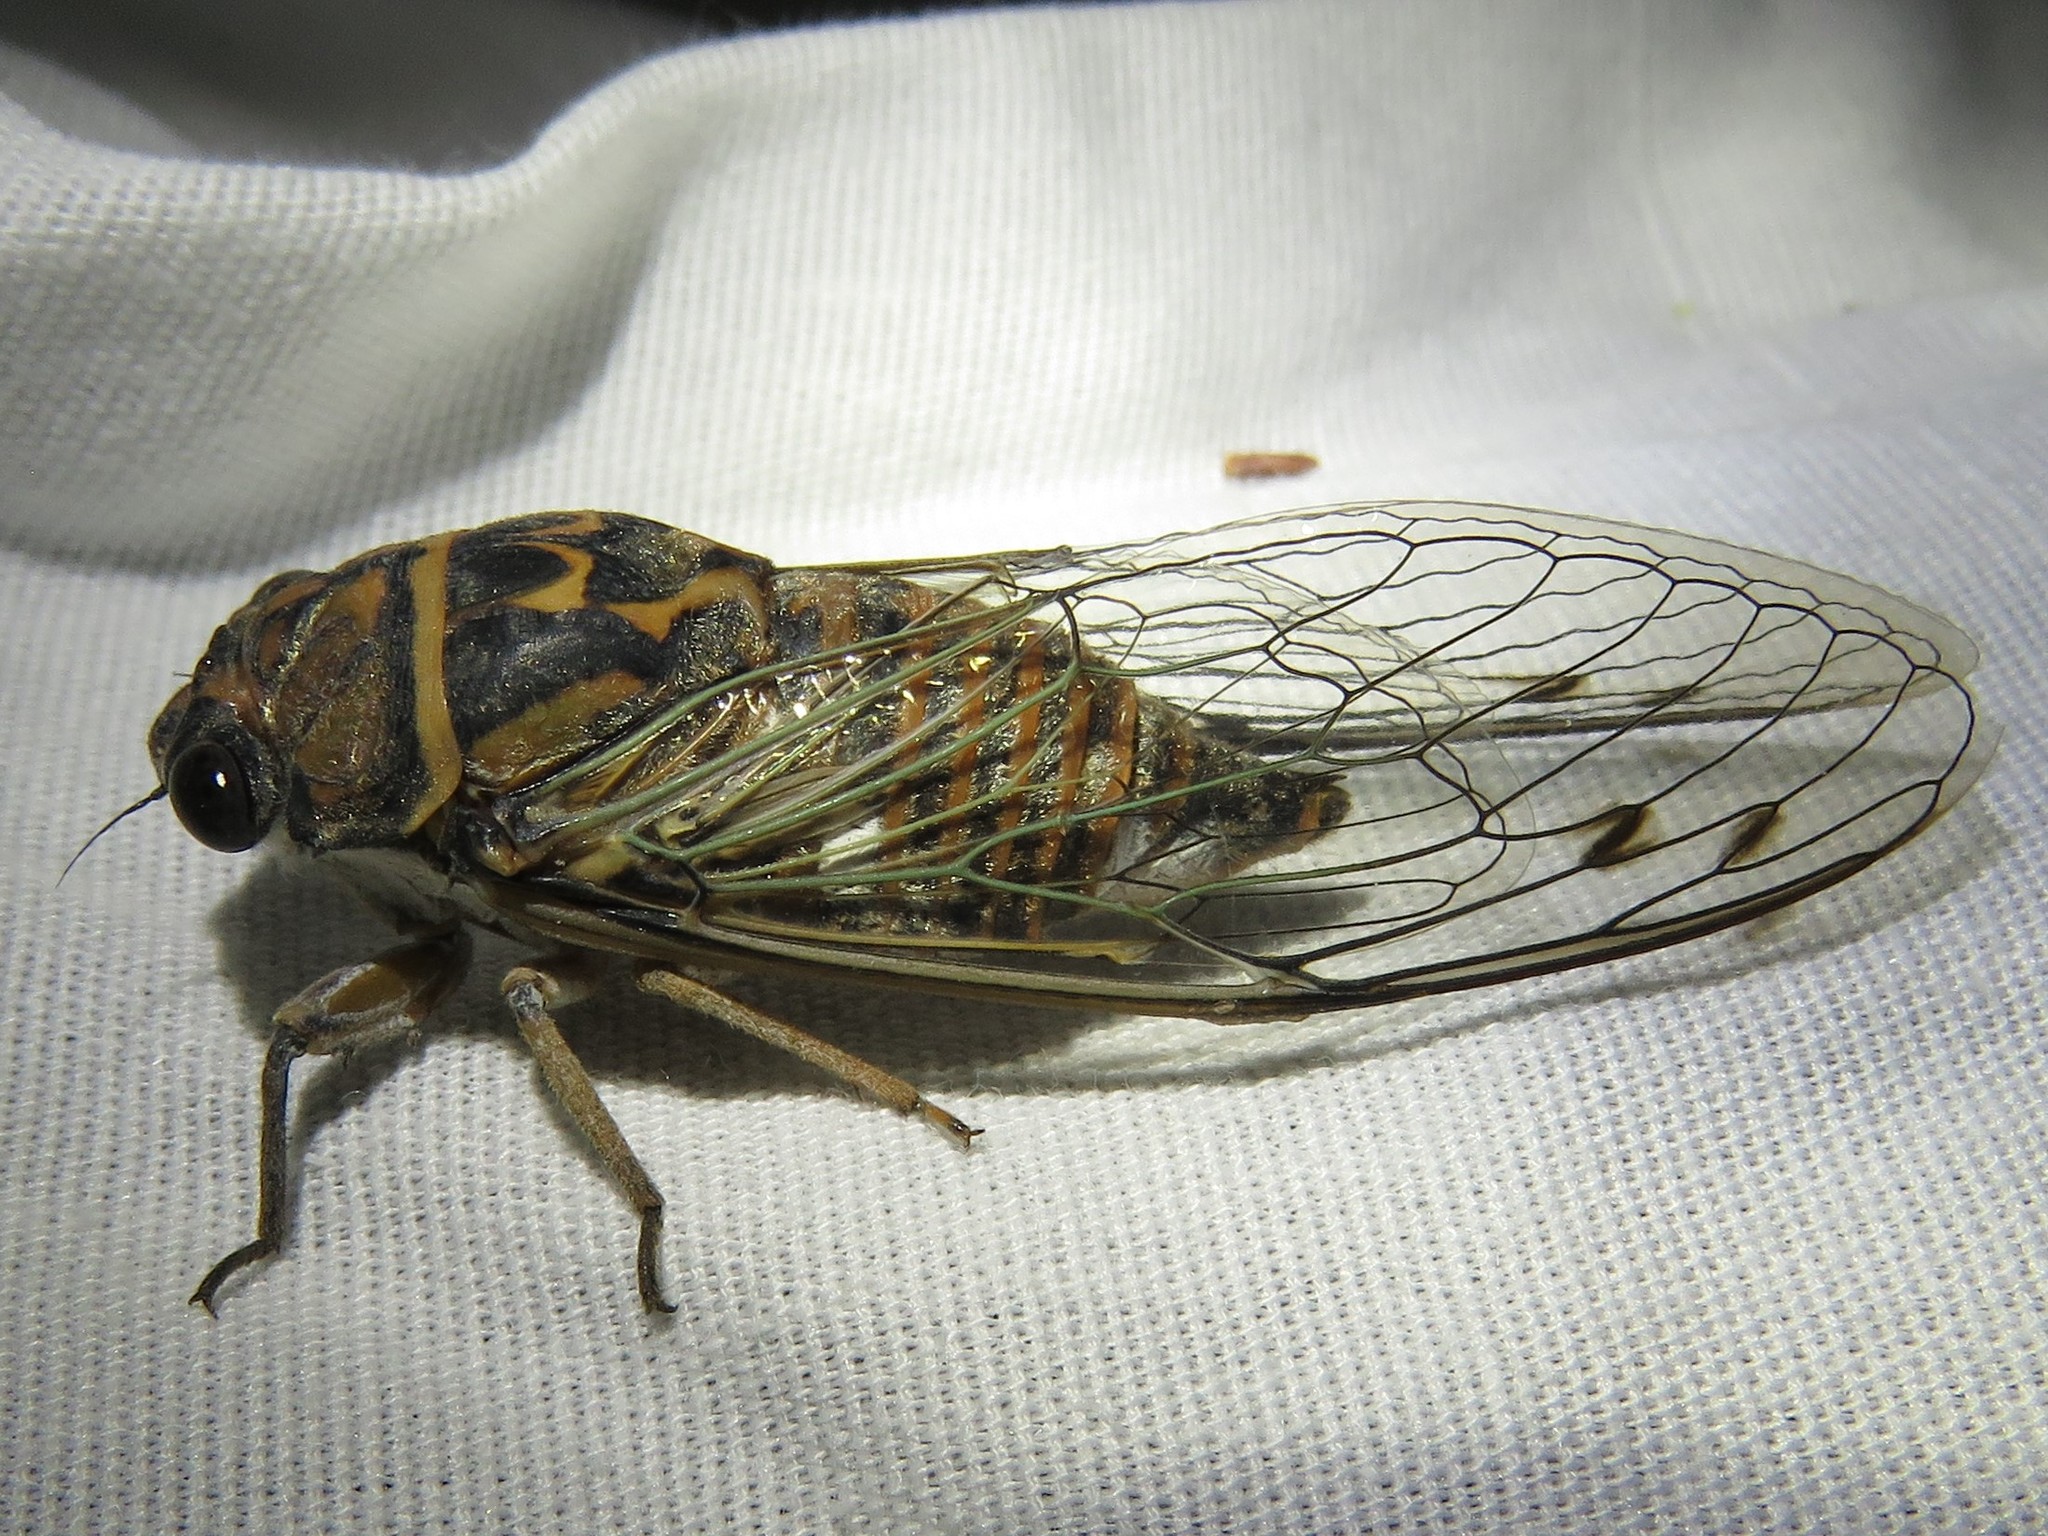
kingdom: Animalia
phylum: Arthropoda
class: Insecta
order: Hemiptera
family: Cicadidae
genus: Hadoa
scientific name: Hadoa texana
